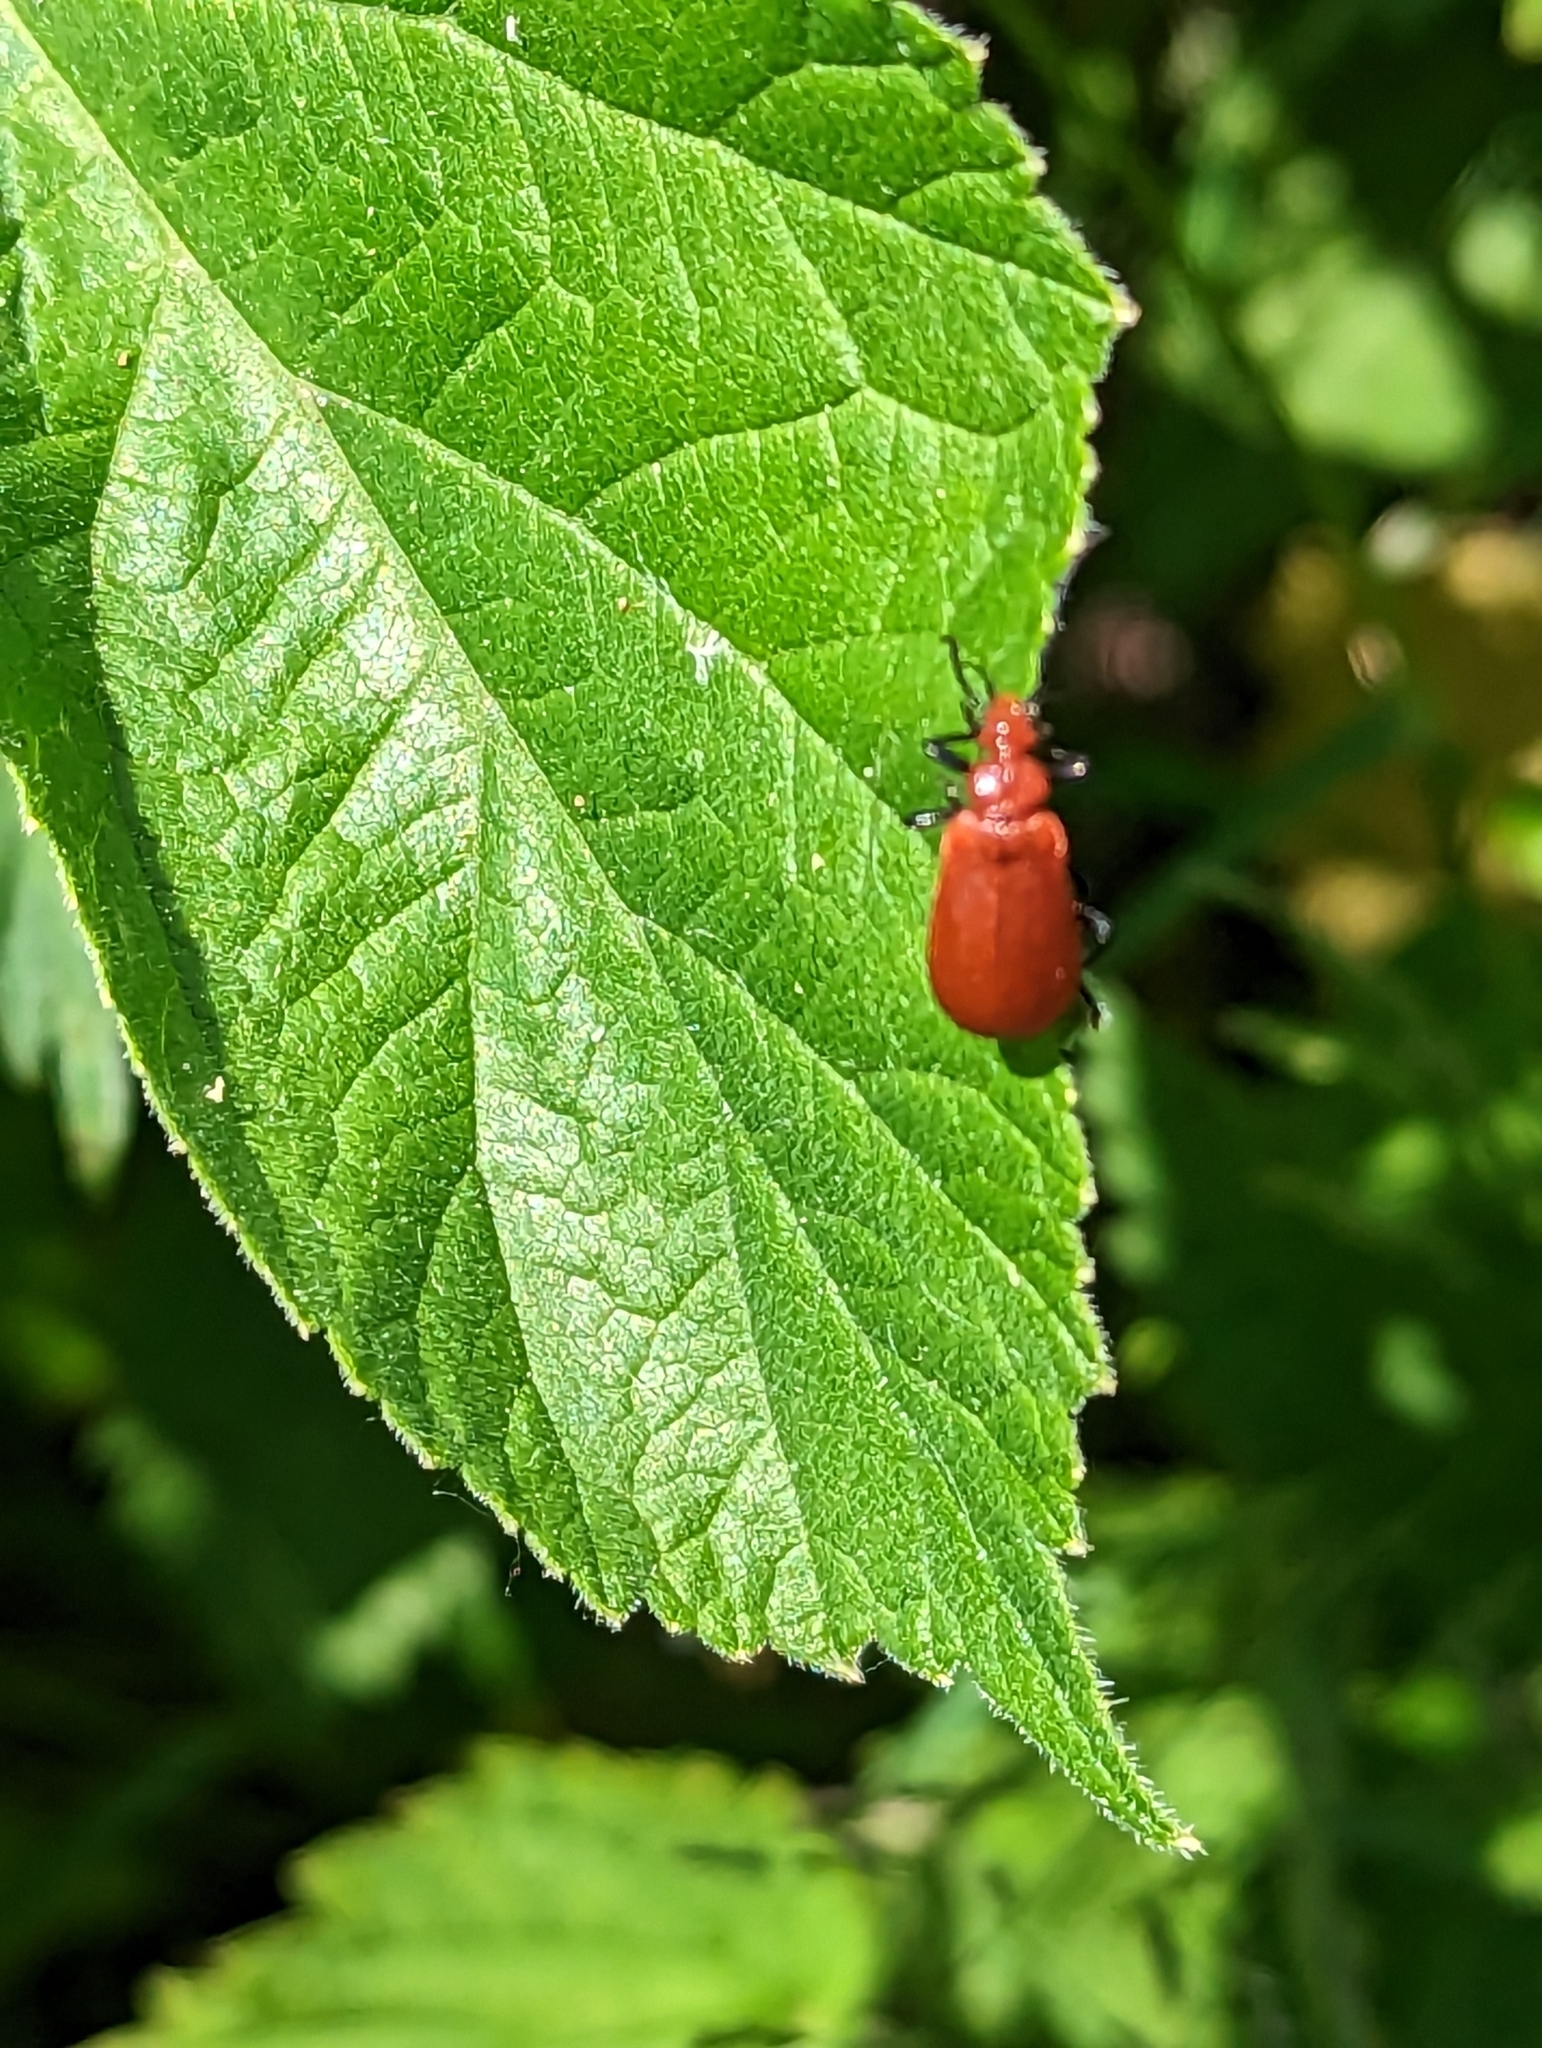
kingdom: Animalia
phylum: Arthropoda
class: Insecta
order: Coleoptera
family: Pyrochroidae
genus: Pyrochroa
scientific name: Pyrochroa serraticornis
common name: Red-headed cardinal beetle
